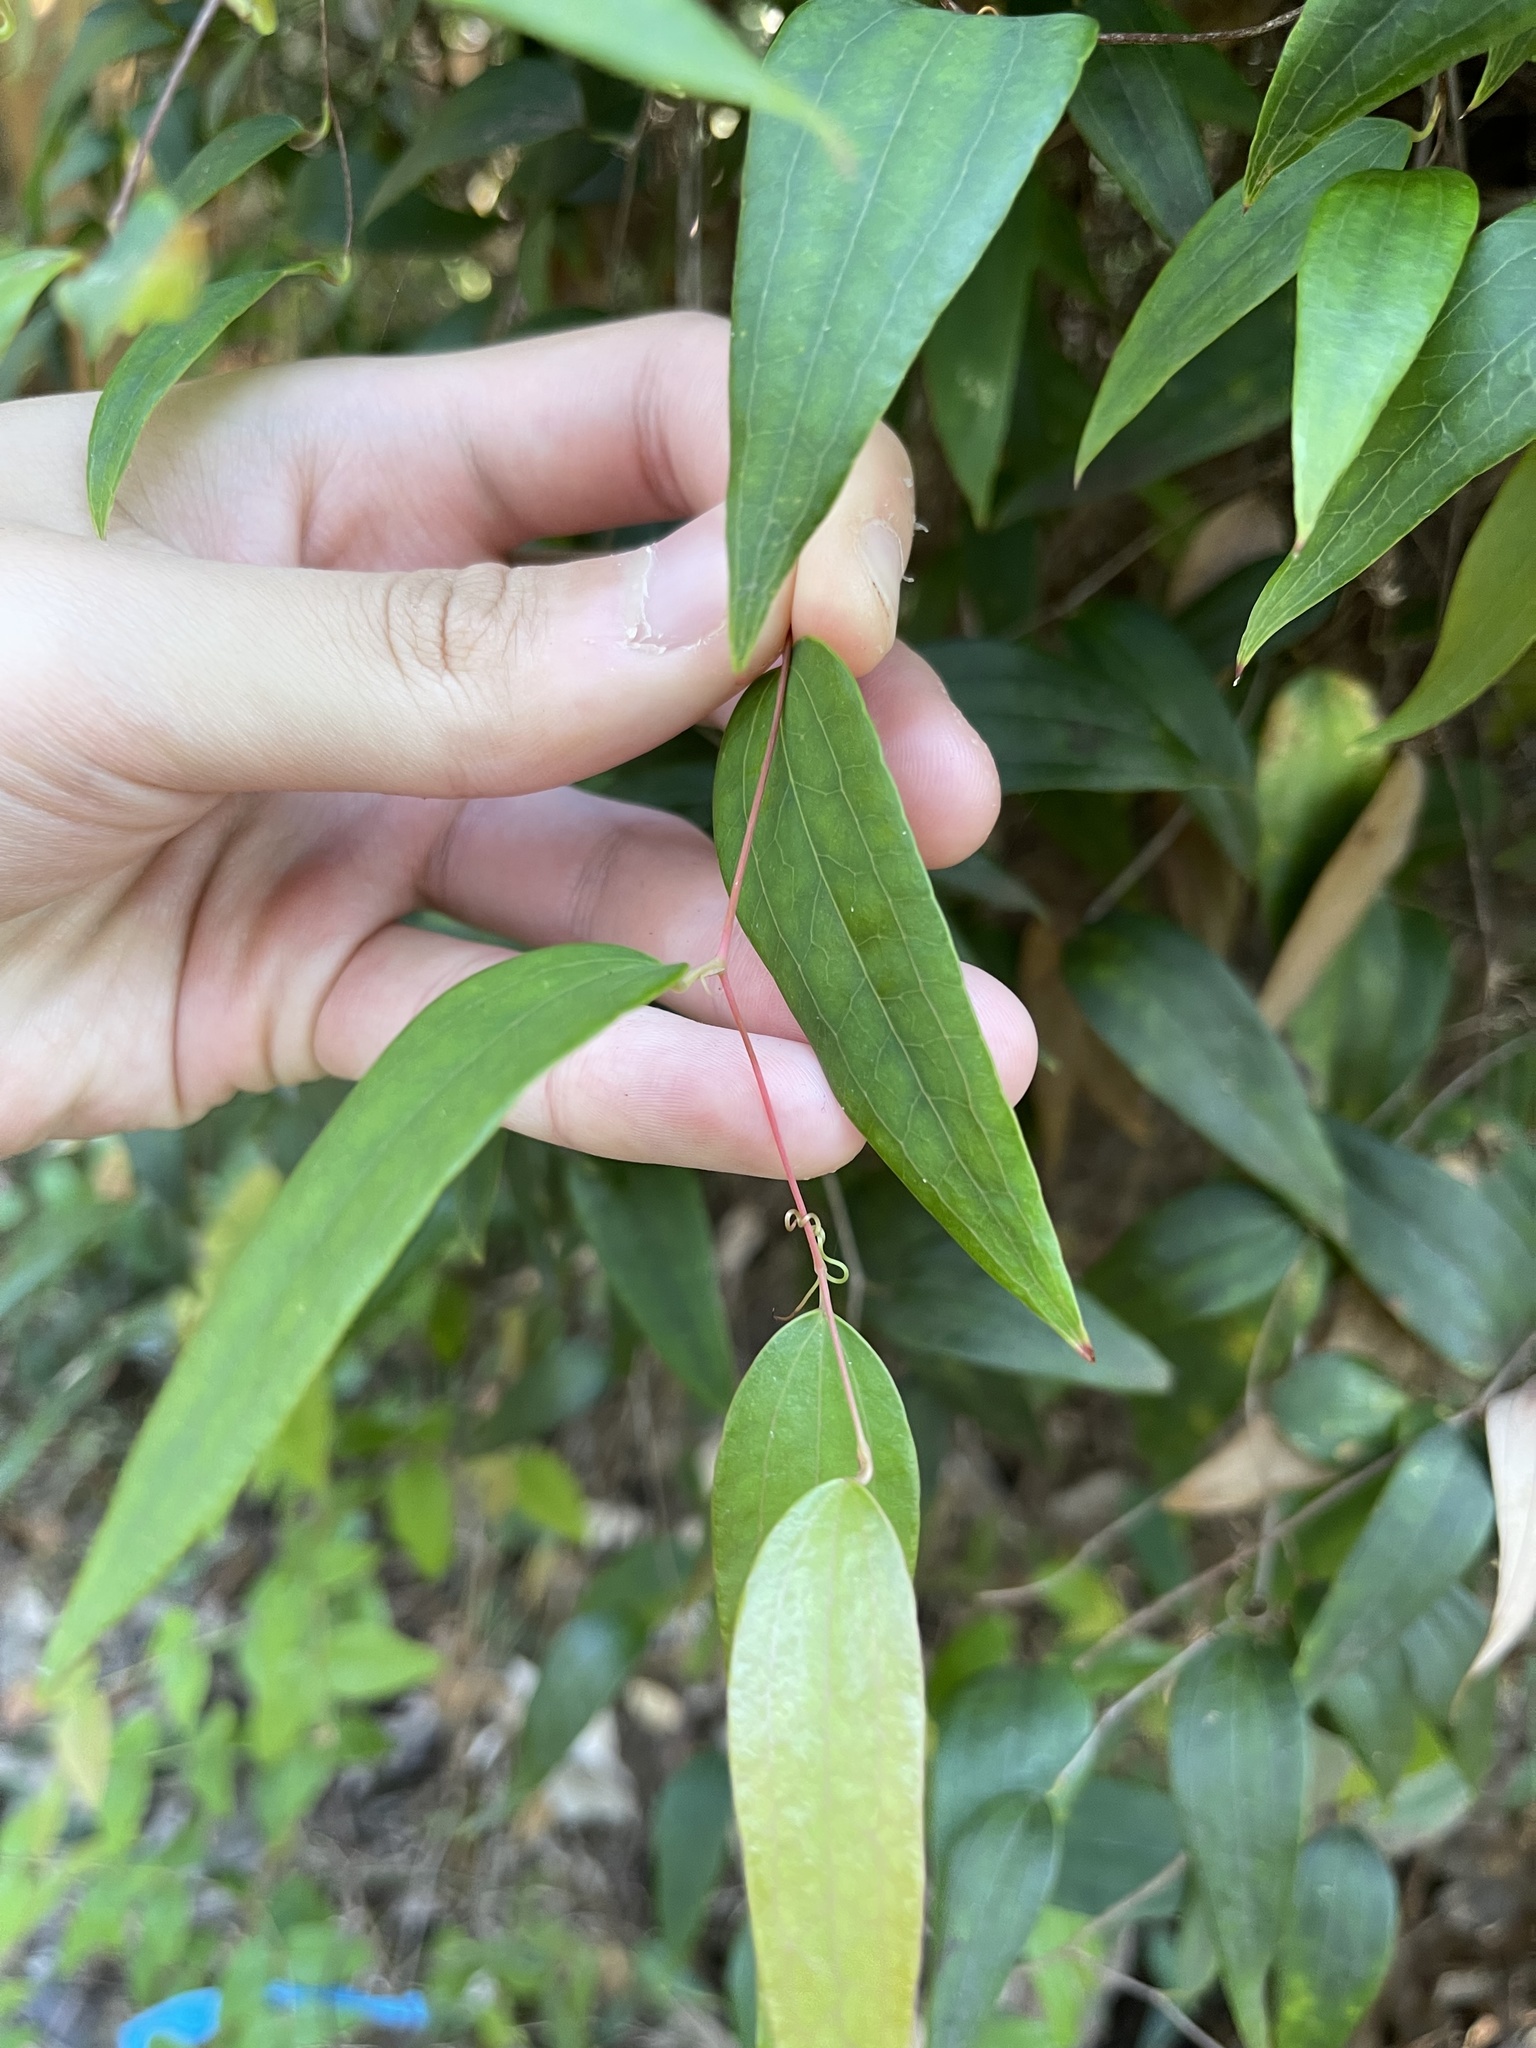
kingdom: Plantae
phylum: Tracheophyta
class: Liliopsida
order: Liliales
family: Smilacaceae
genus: Smilax
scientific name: Smilax glyciphylla
